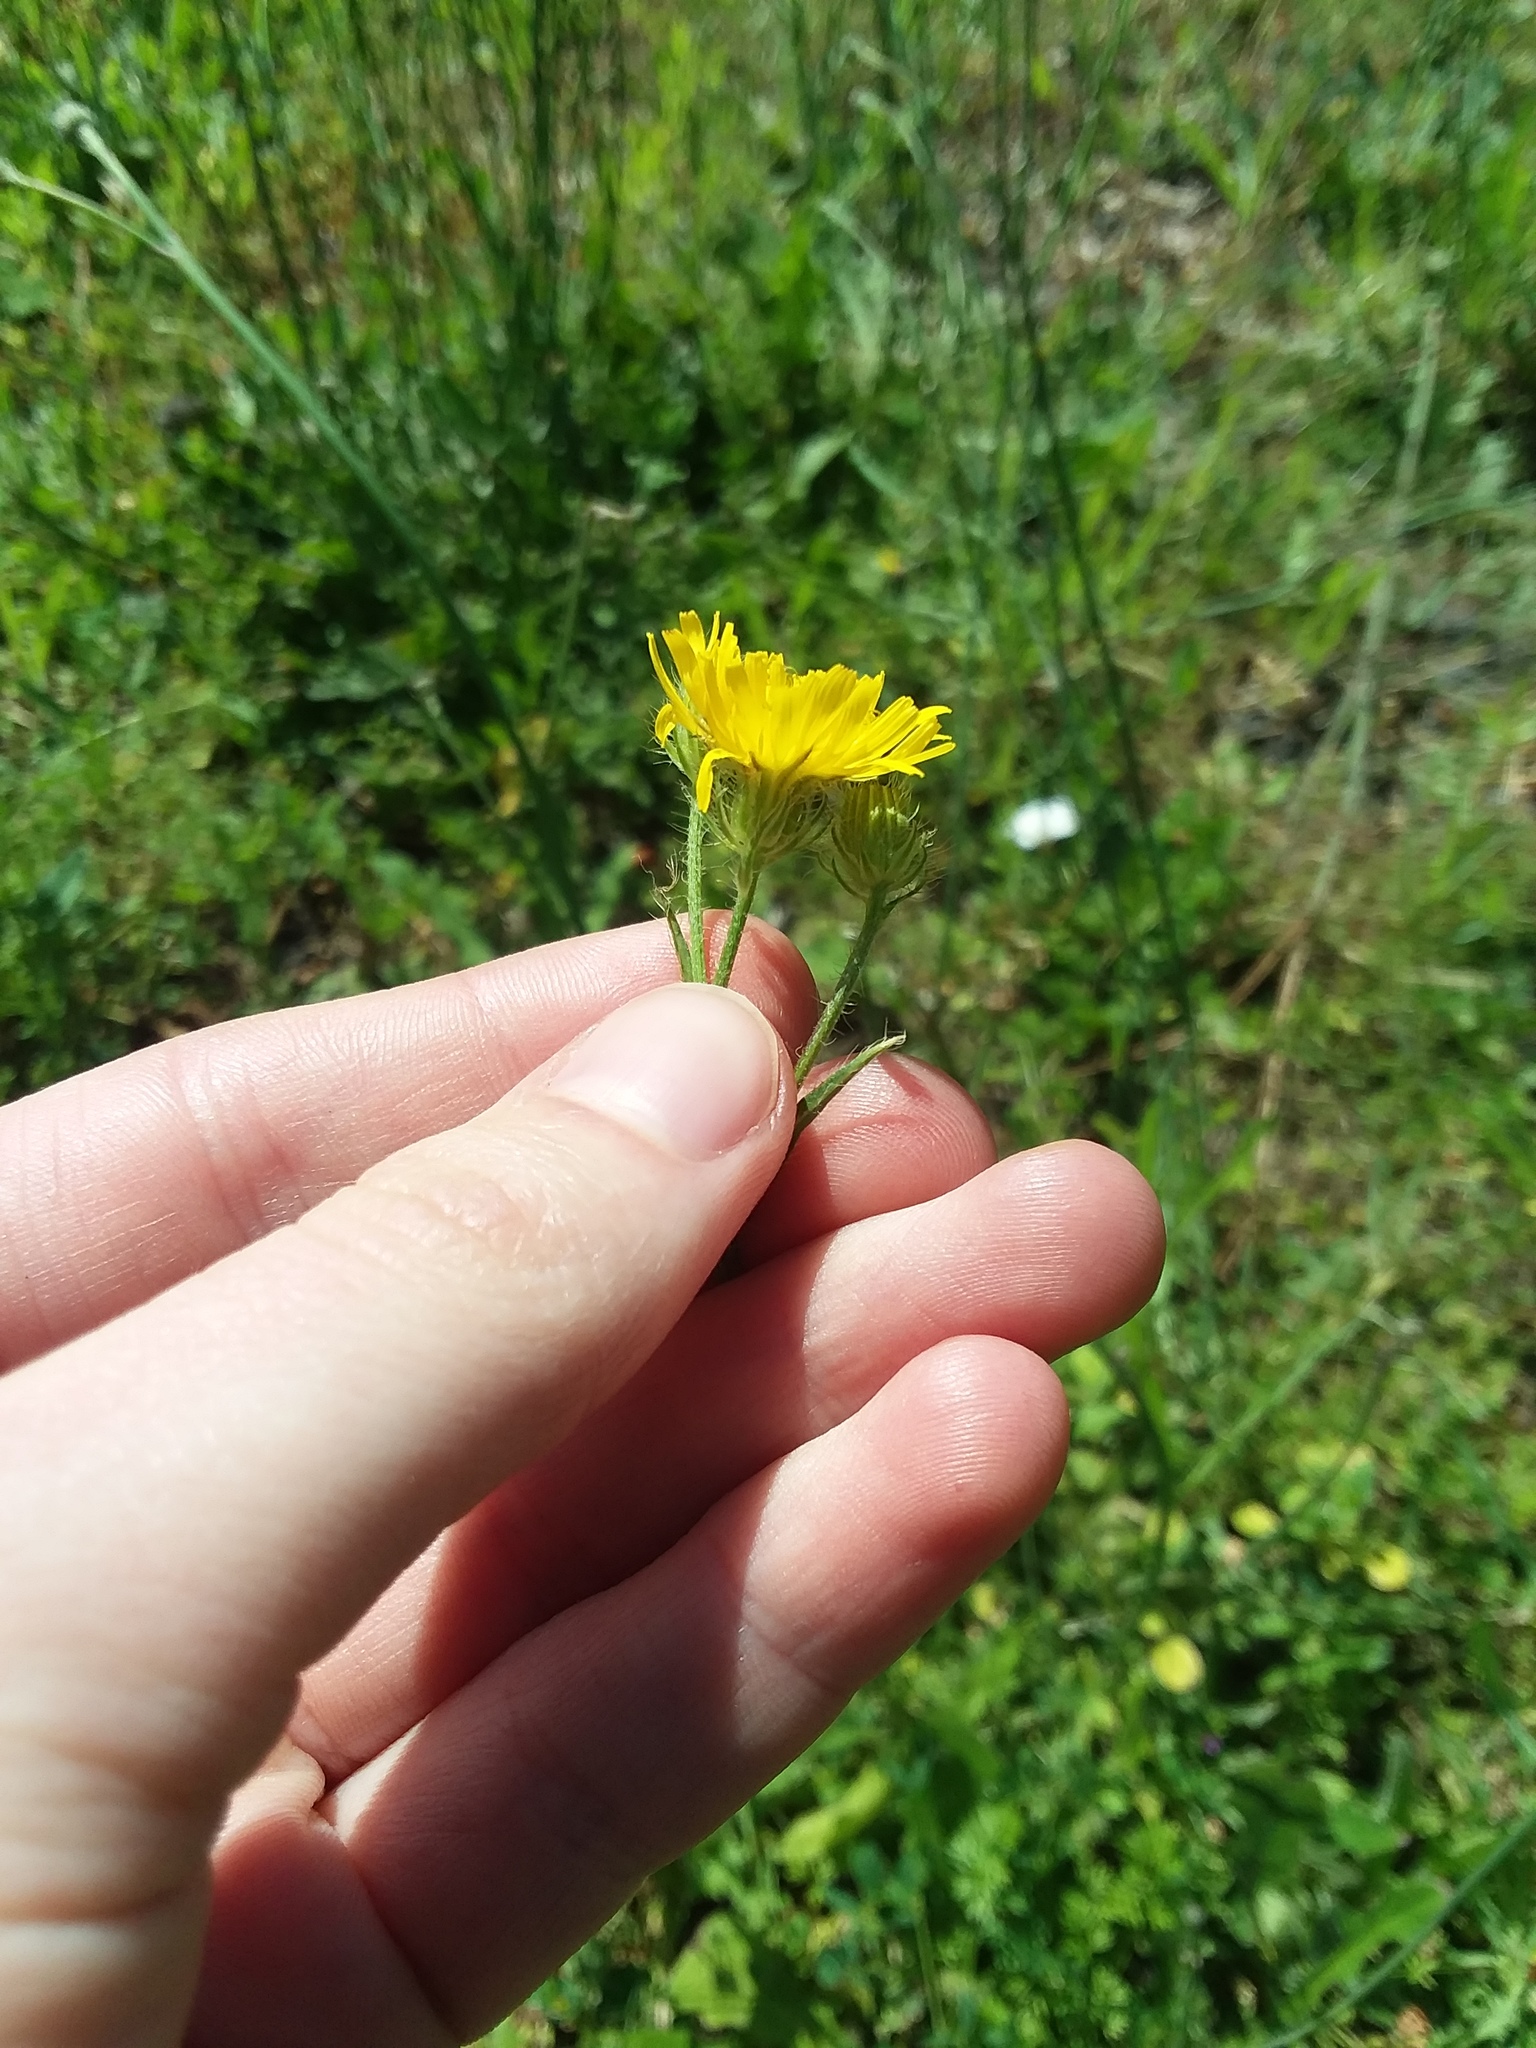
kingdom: Plantae
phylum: Tracheophyta
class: Magnoliopsida
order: Asterales
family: Asteraceae
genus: Crepis
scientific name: Crepis setosa
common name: Bristly hawk's-beard
